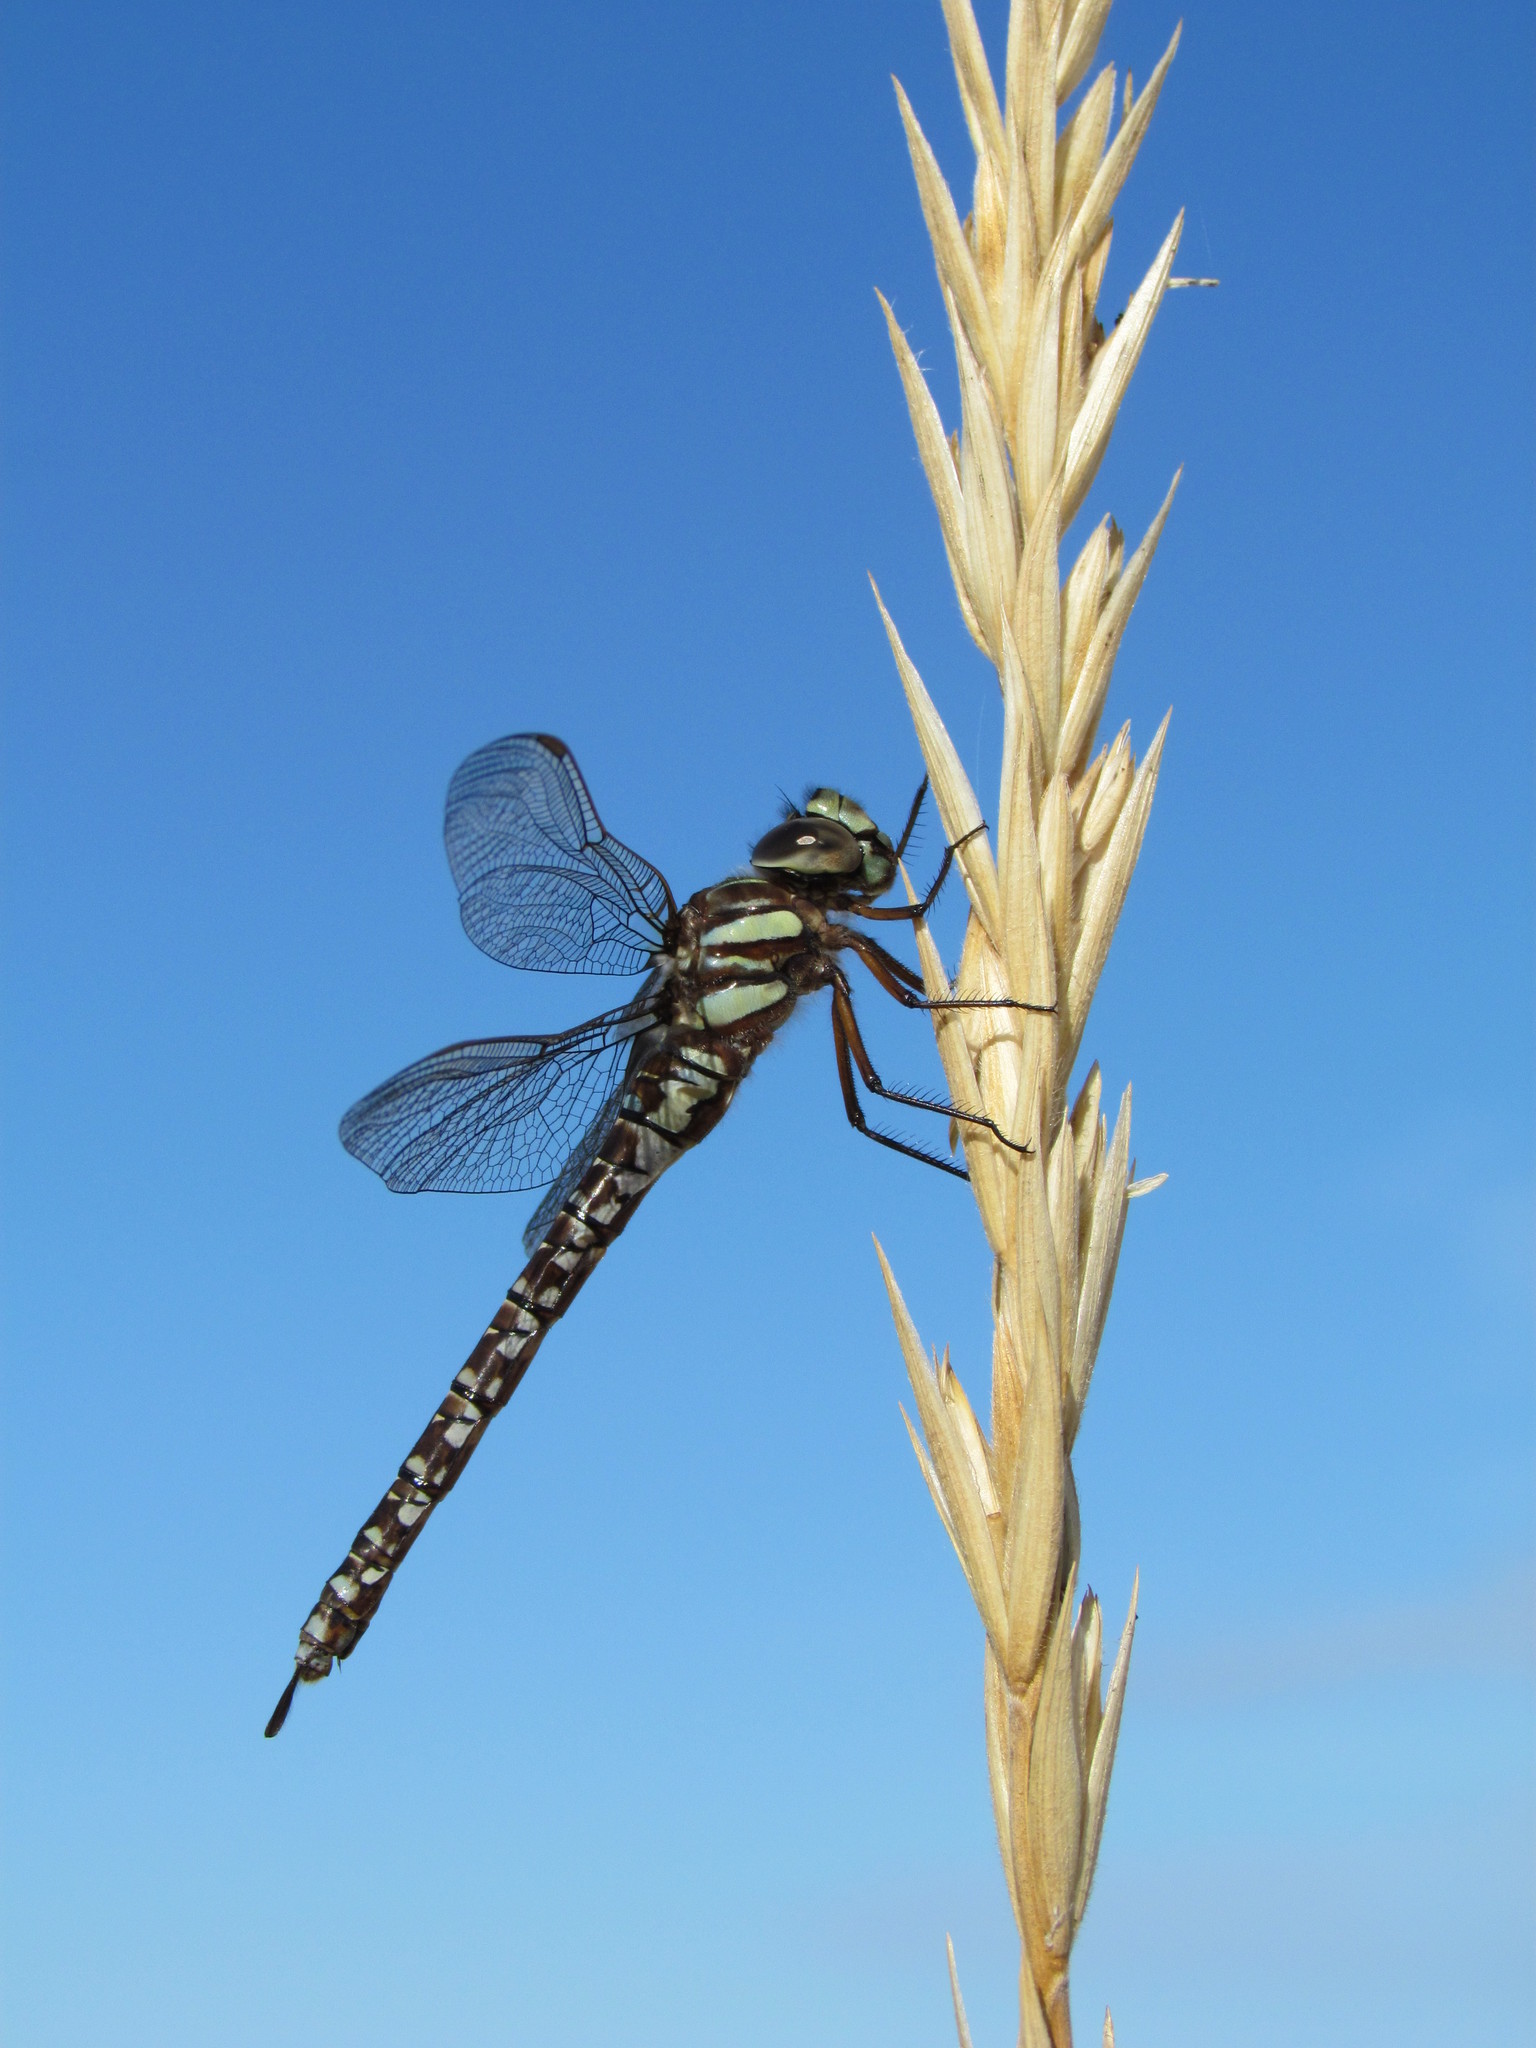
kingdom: Animalia
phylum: Arthropoda
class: Insecta
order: Odonata
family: Aeshnidae
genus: Aeshna
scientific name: Aeshna juncea
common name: Moorland hawker
